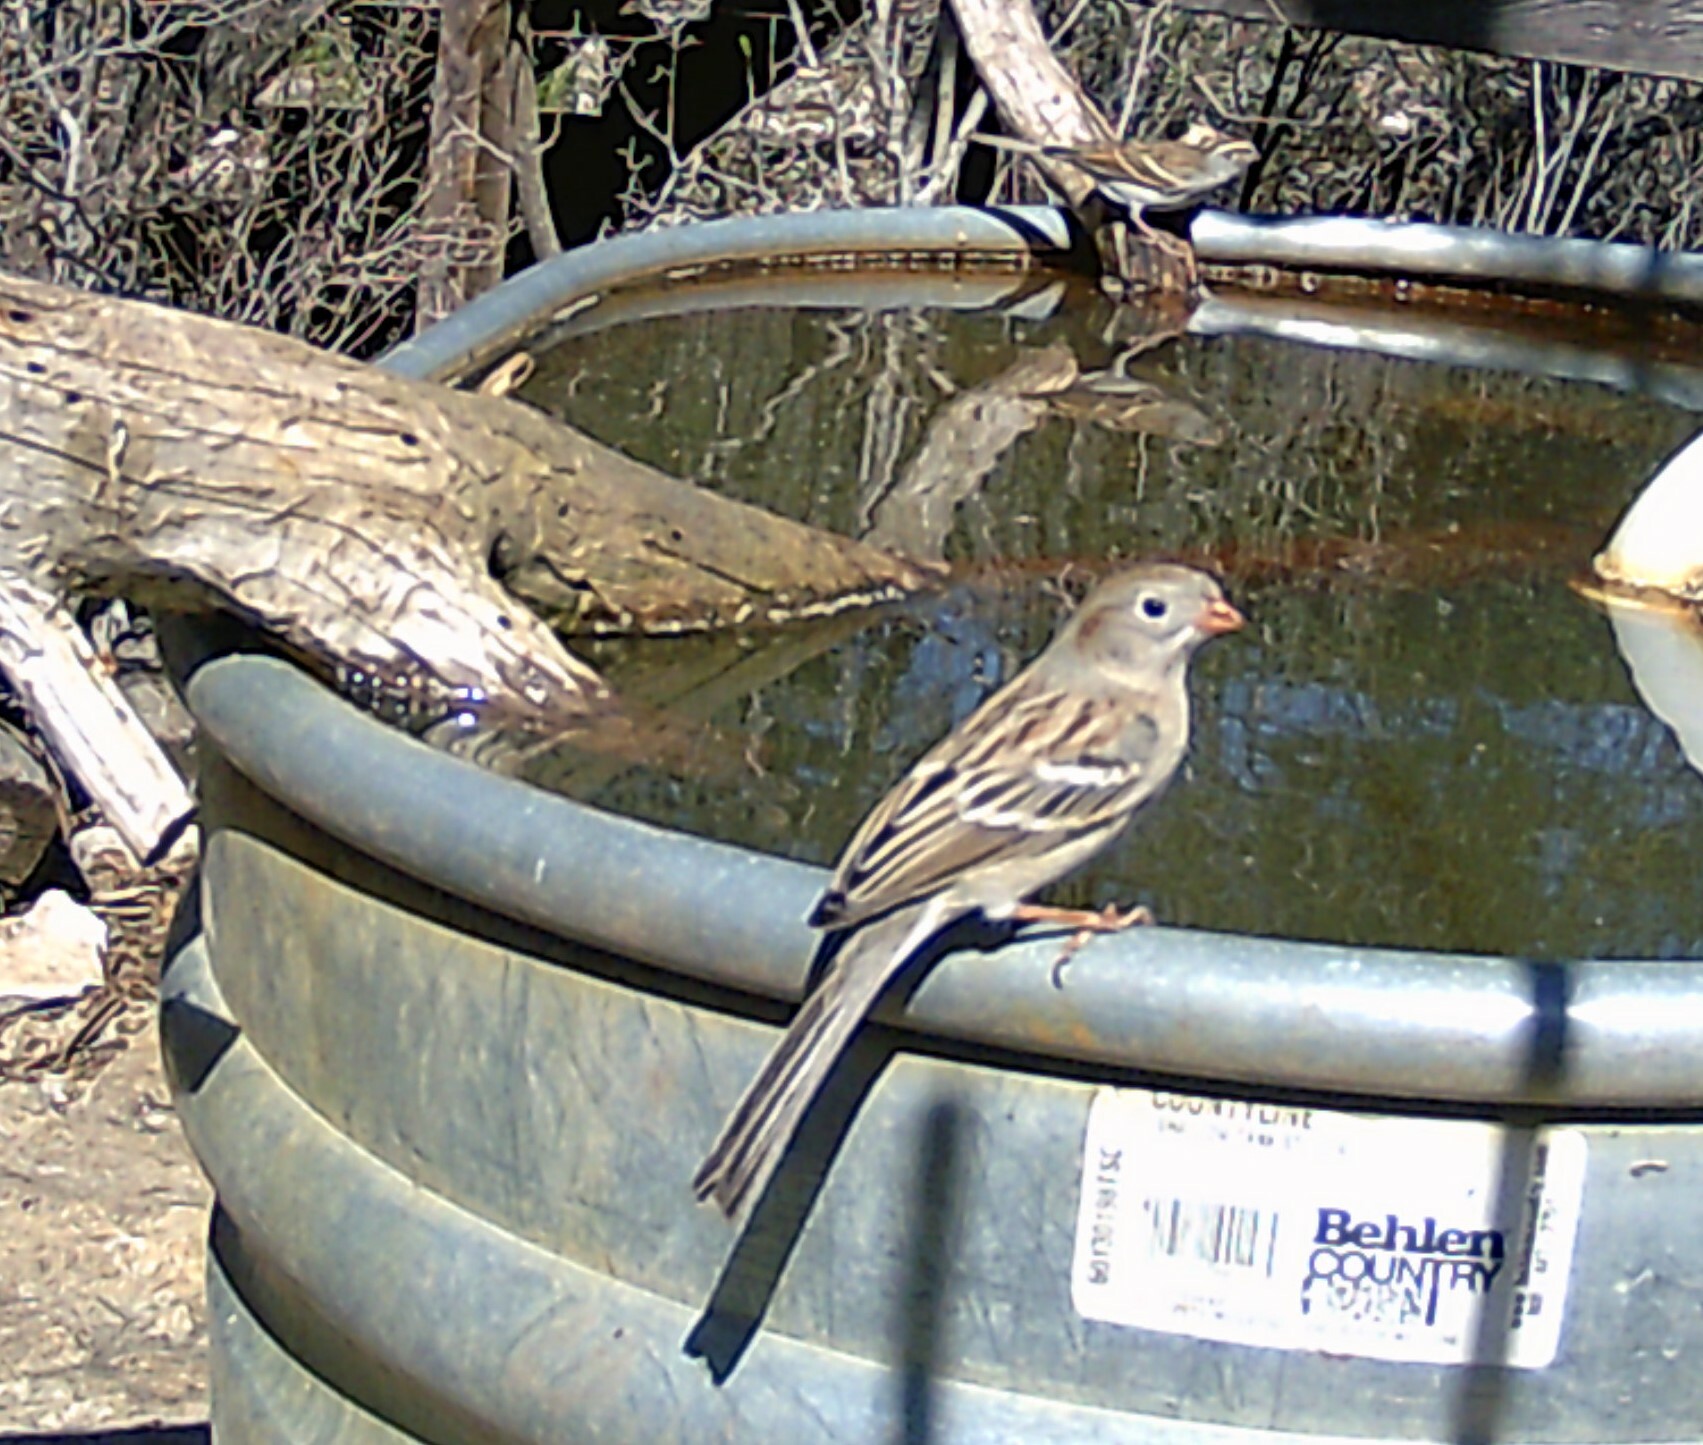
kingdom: Animalia
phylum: Chordata
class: Aves
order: Passeriformes
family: Passerellidae
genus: Spizella
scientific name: Spizella pusilla
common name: Field sparrow
